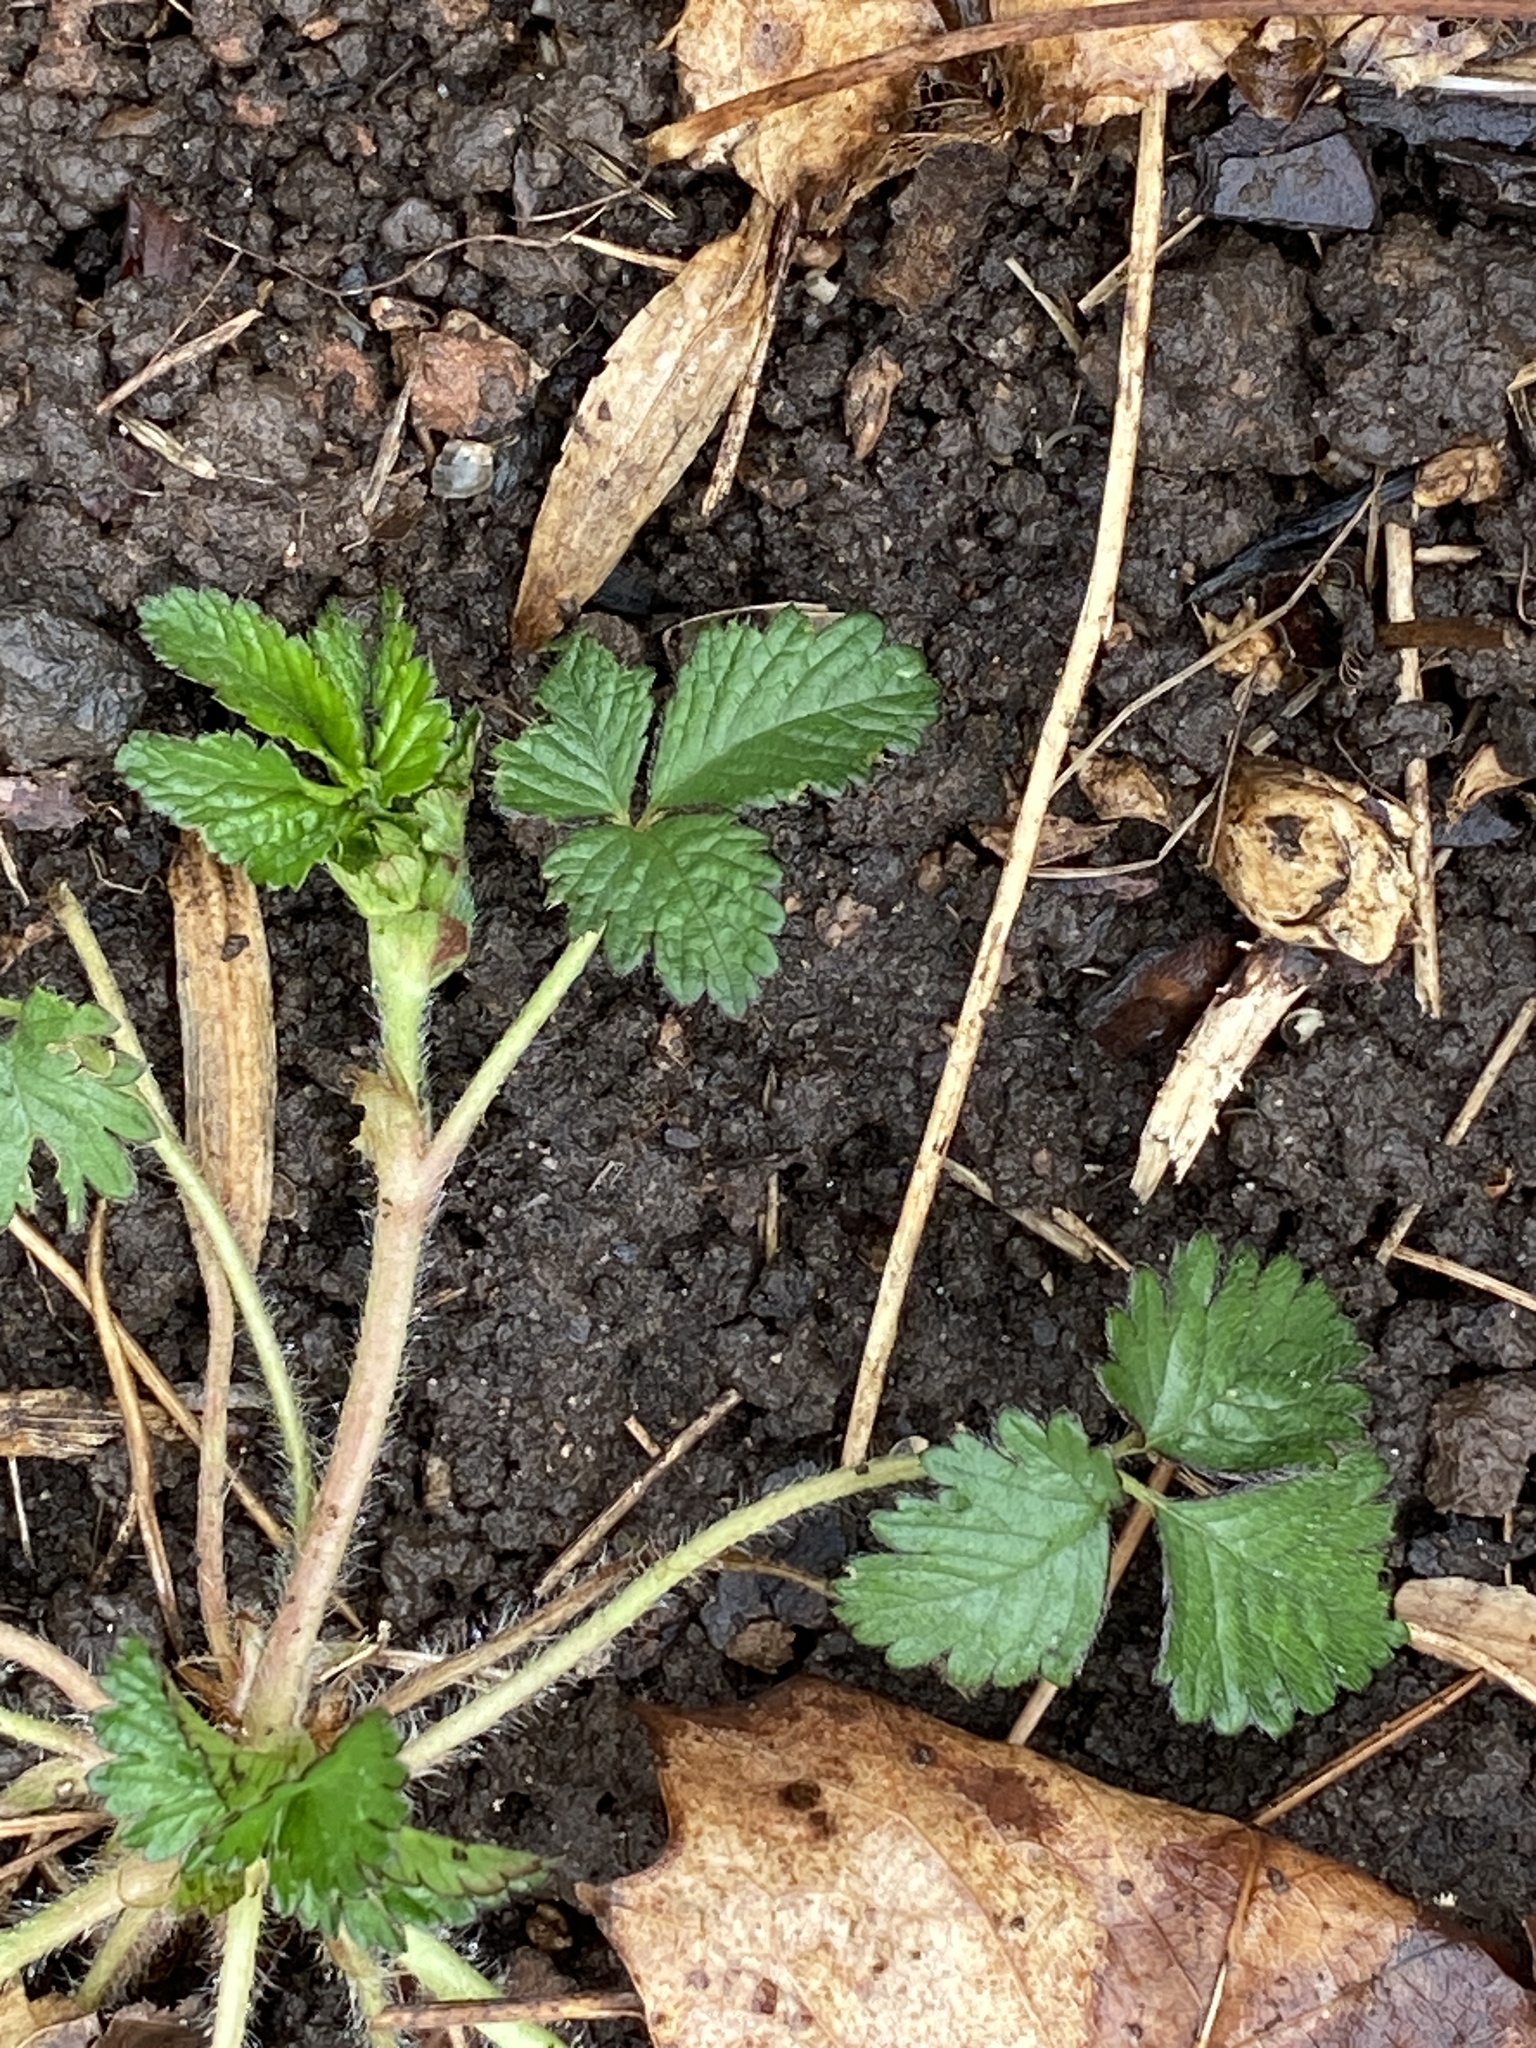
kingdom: Plantae
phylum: Tracheophyta
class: Magnoliopsida
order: Rosales
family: Rosaceae
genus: Potentilla
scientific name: Potentilla indica
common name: Yellow-flowered strawberry
